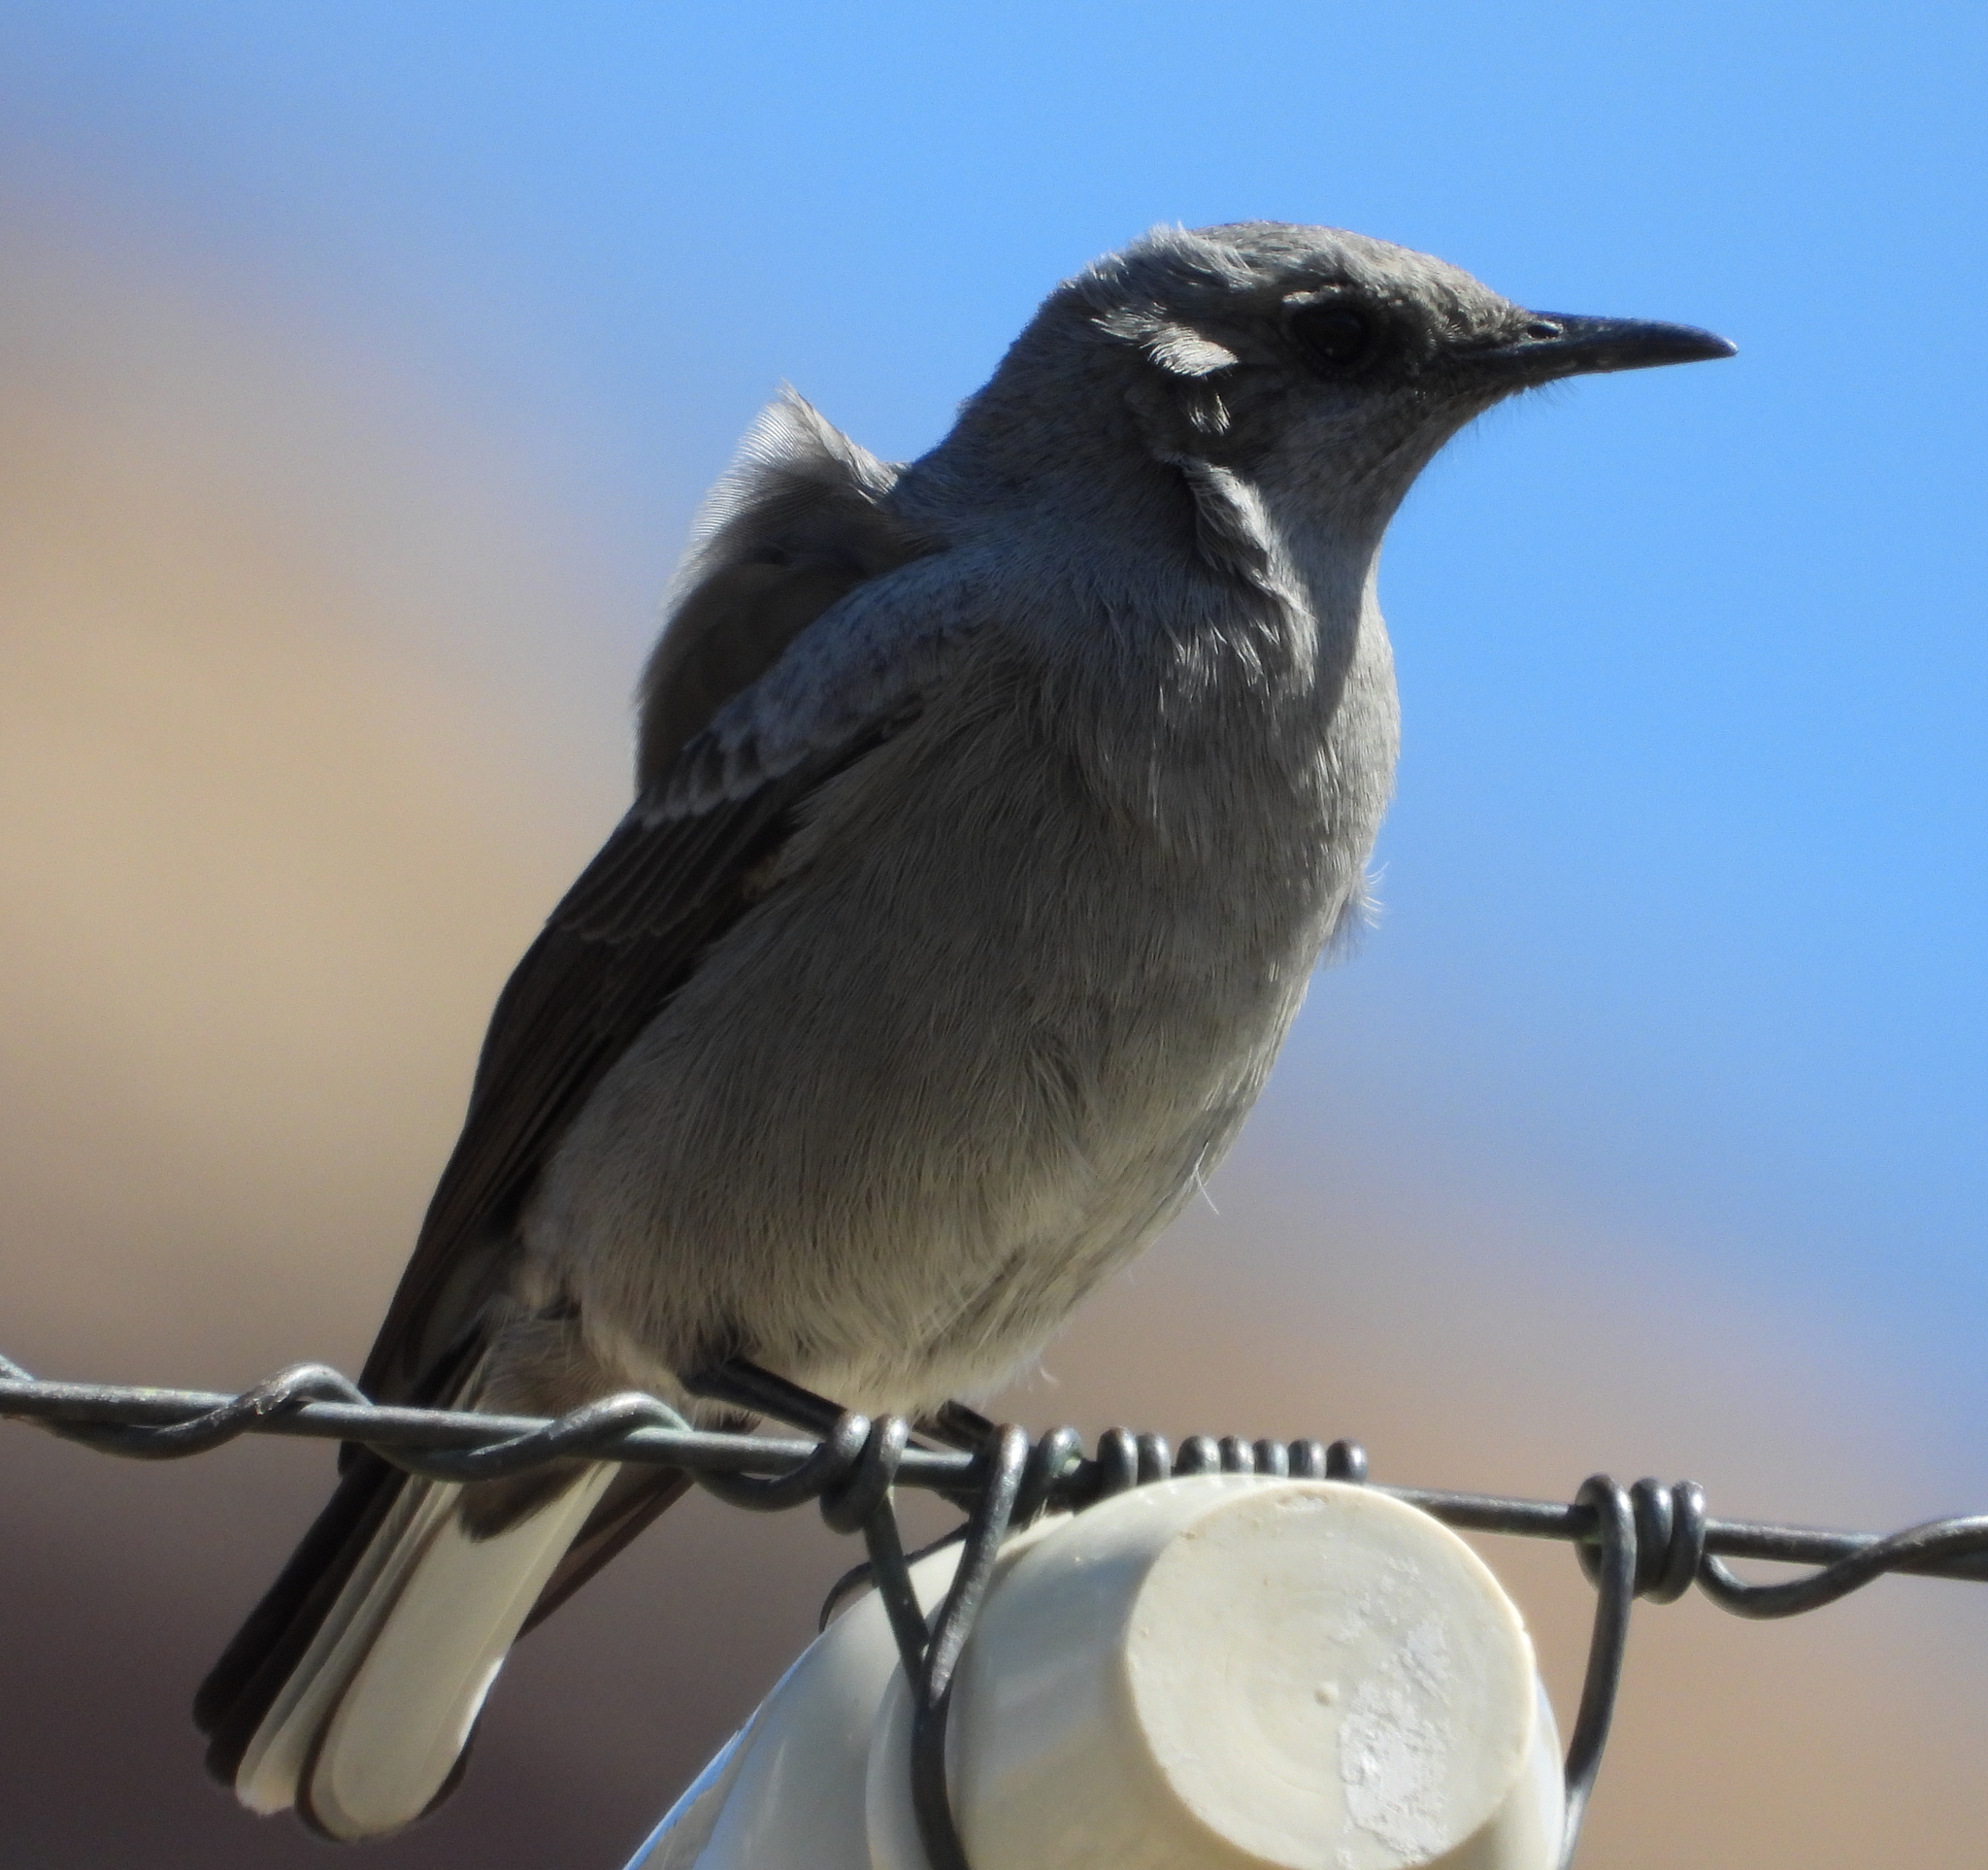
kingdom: Animalia
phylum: Chordata
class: Aves
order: Passeriformes
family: Muscicapidae
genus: Oenanthe
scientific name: Oenanthe monticola
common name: Mountain wheatear
